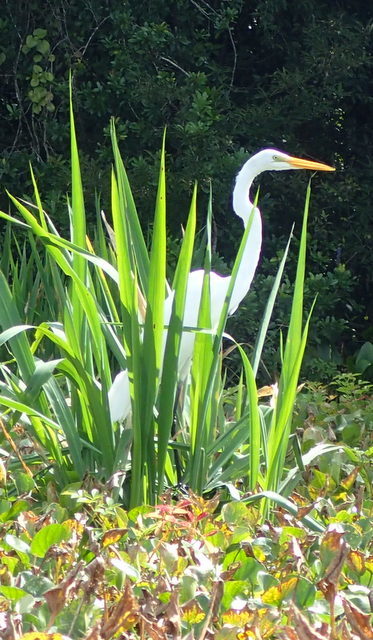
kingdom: Animalia
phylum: Chordata
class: Aves
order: Pelecaniformes
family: Ardeidae
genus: Ardea
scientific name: Ardea alba
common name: Great egret
